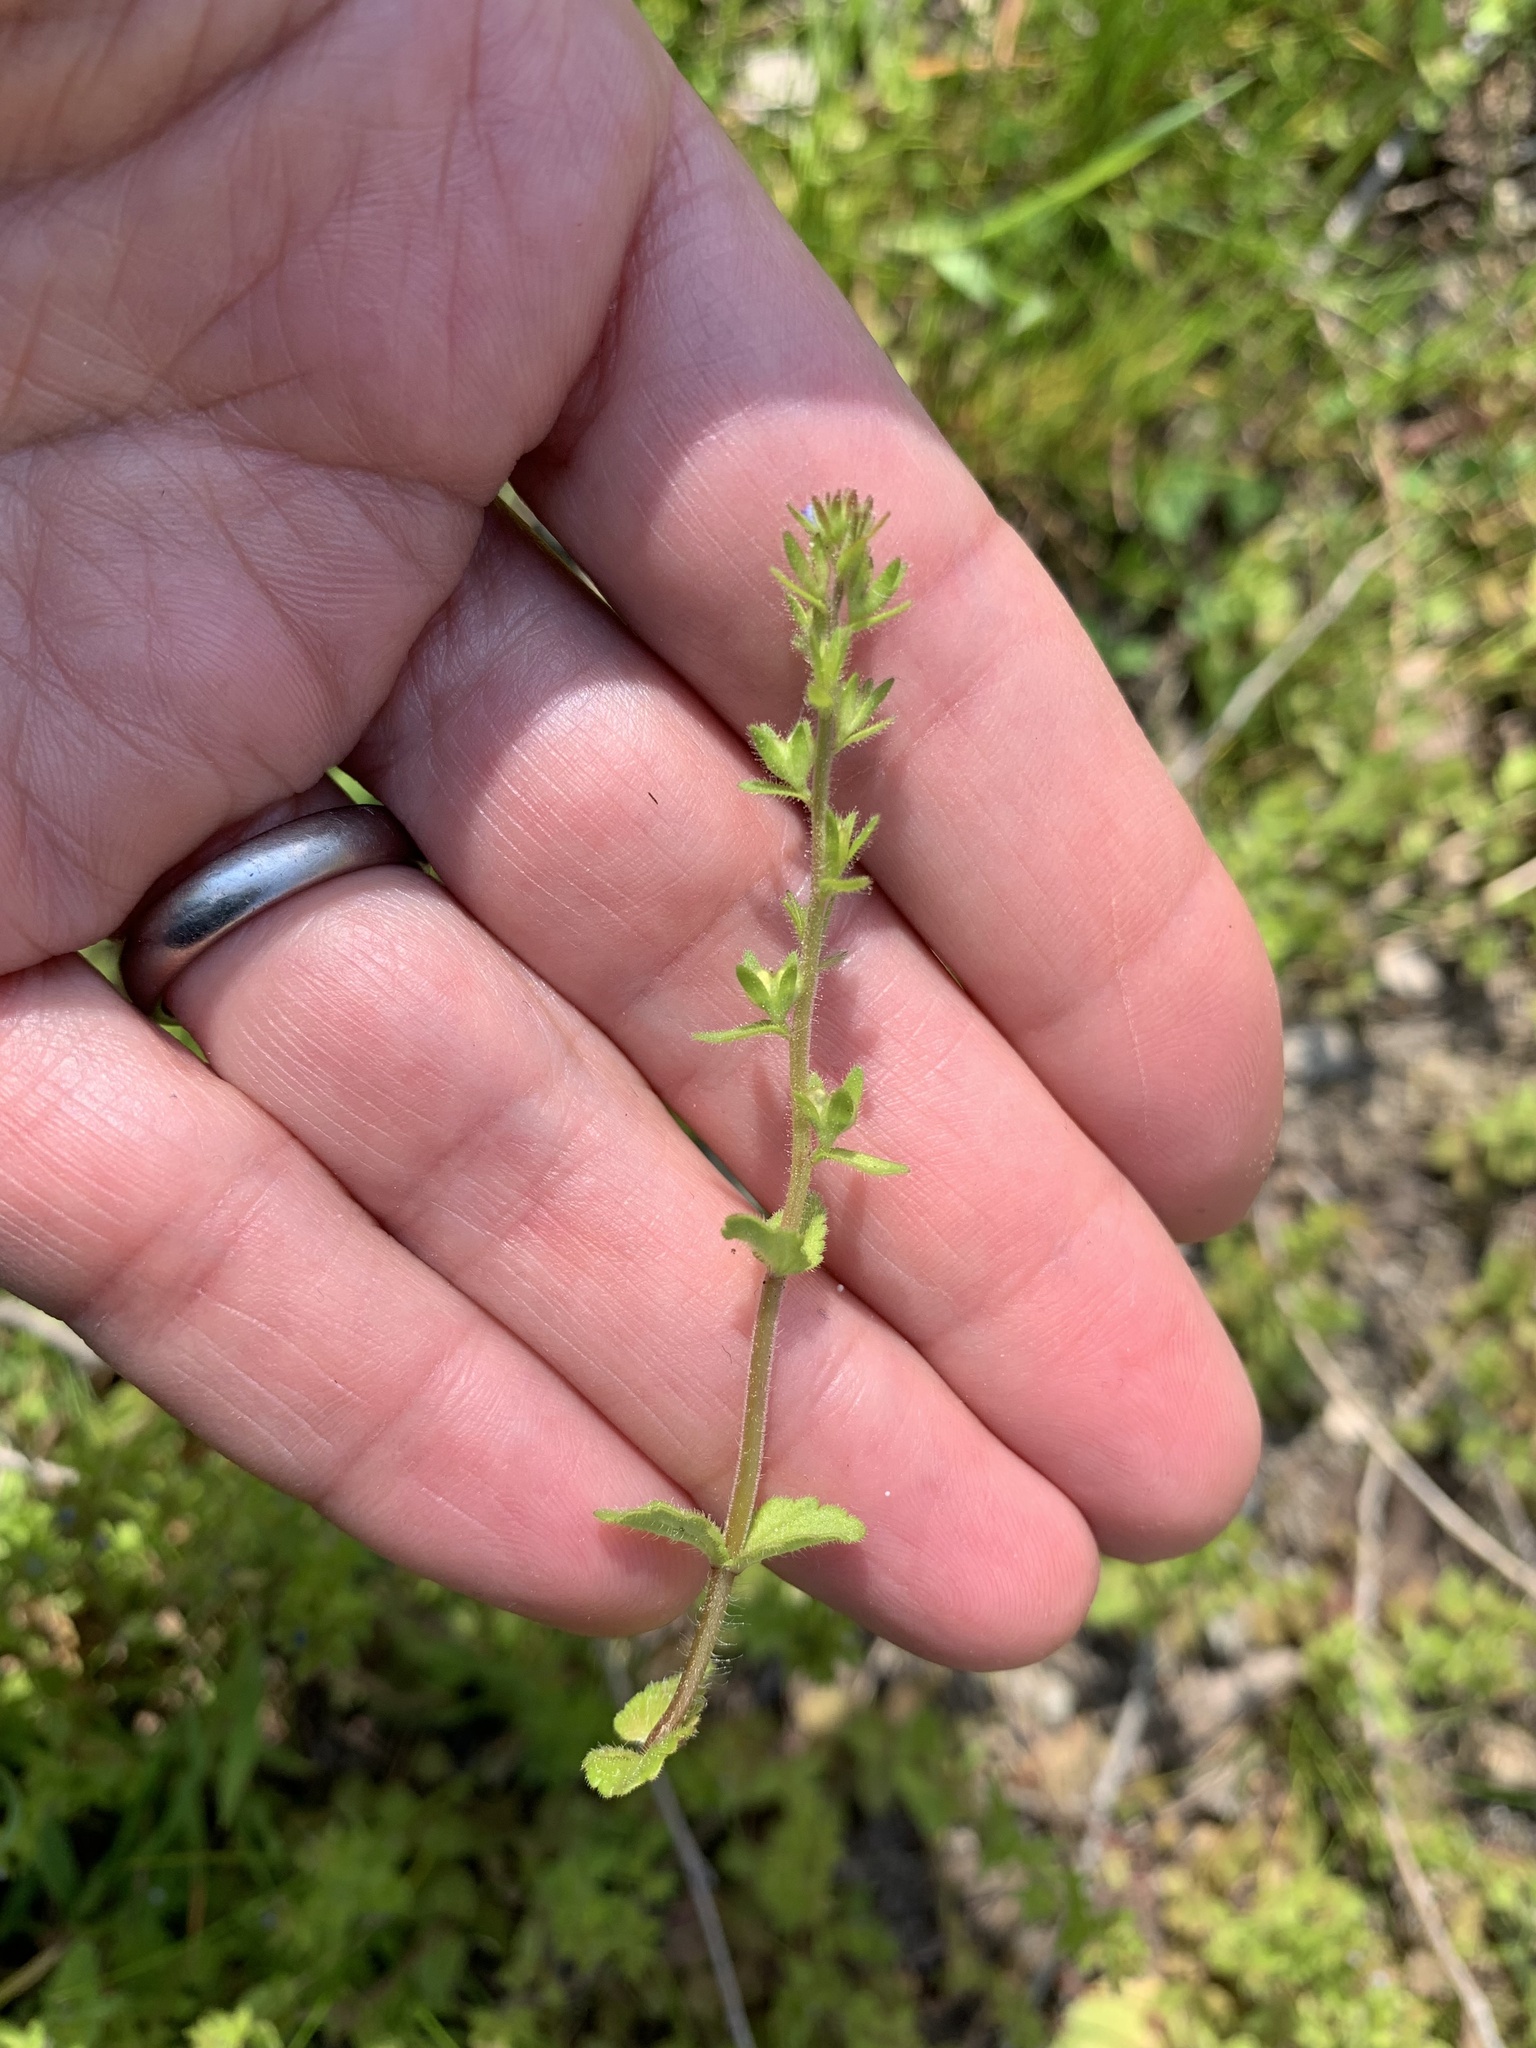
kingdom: Plantae
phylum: Tracheophyta
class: Magnoliopsida
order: Lamiales
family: Plantaginaceae
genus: Veronica
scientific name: Veronica arvensis
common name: Corn speedwell
